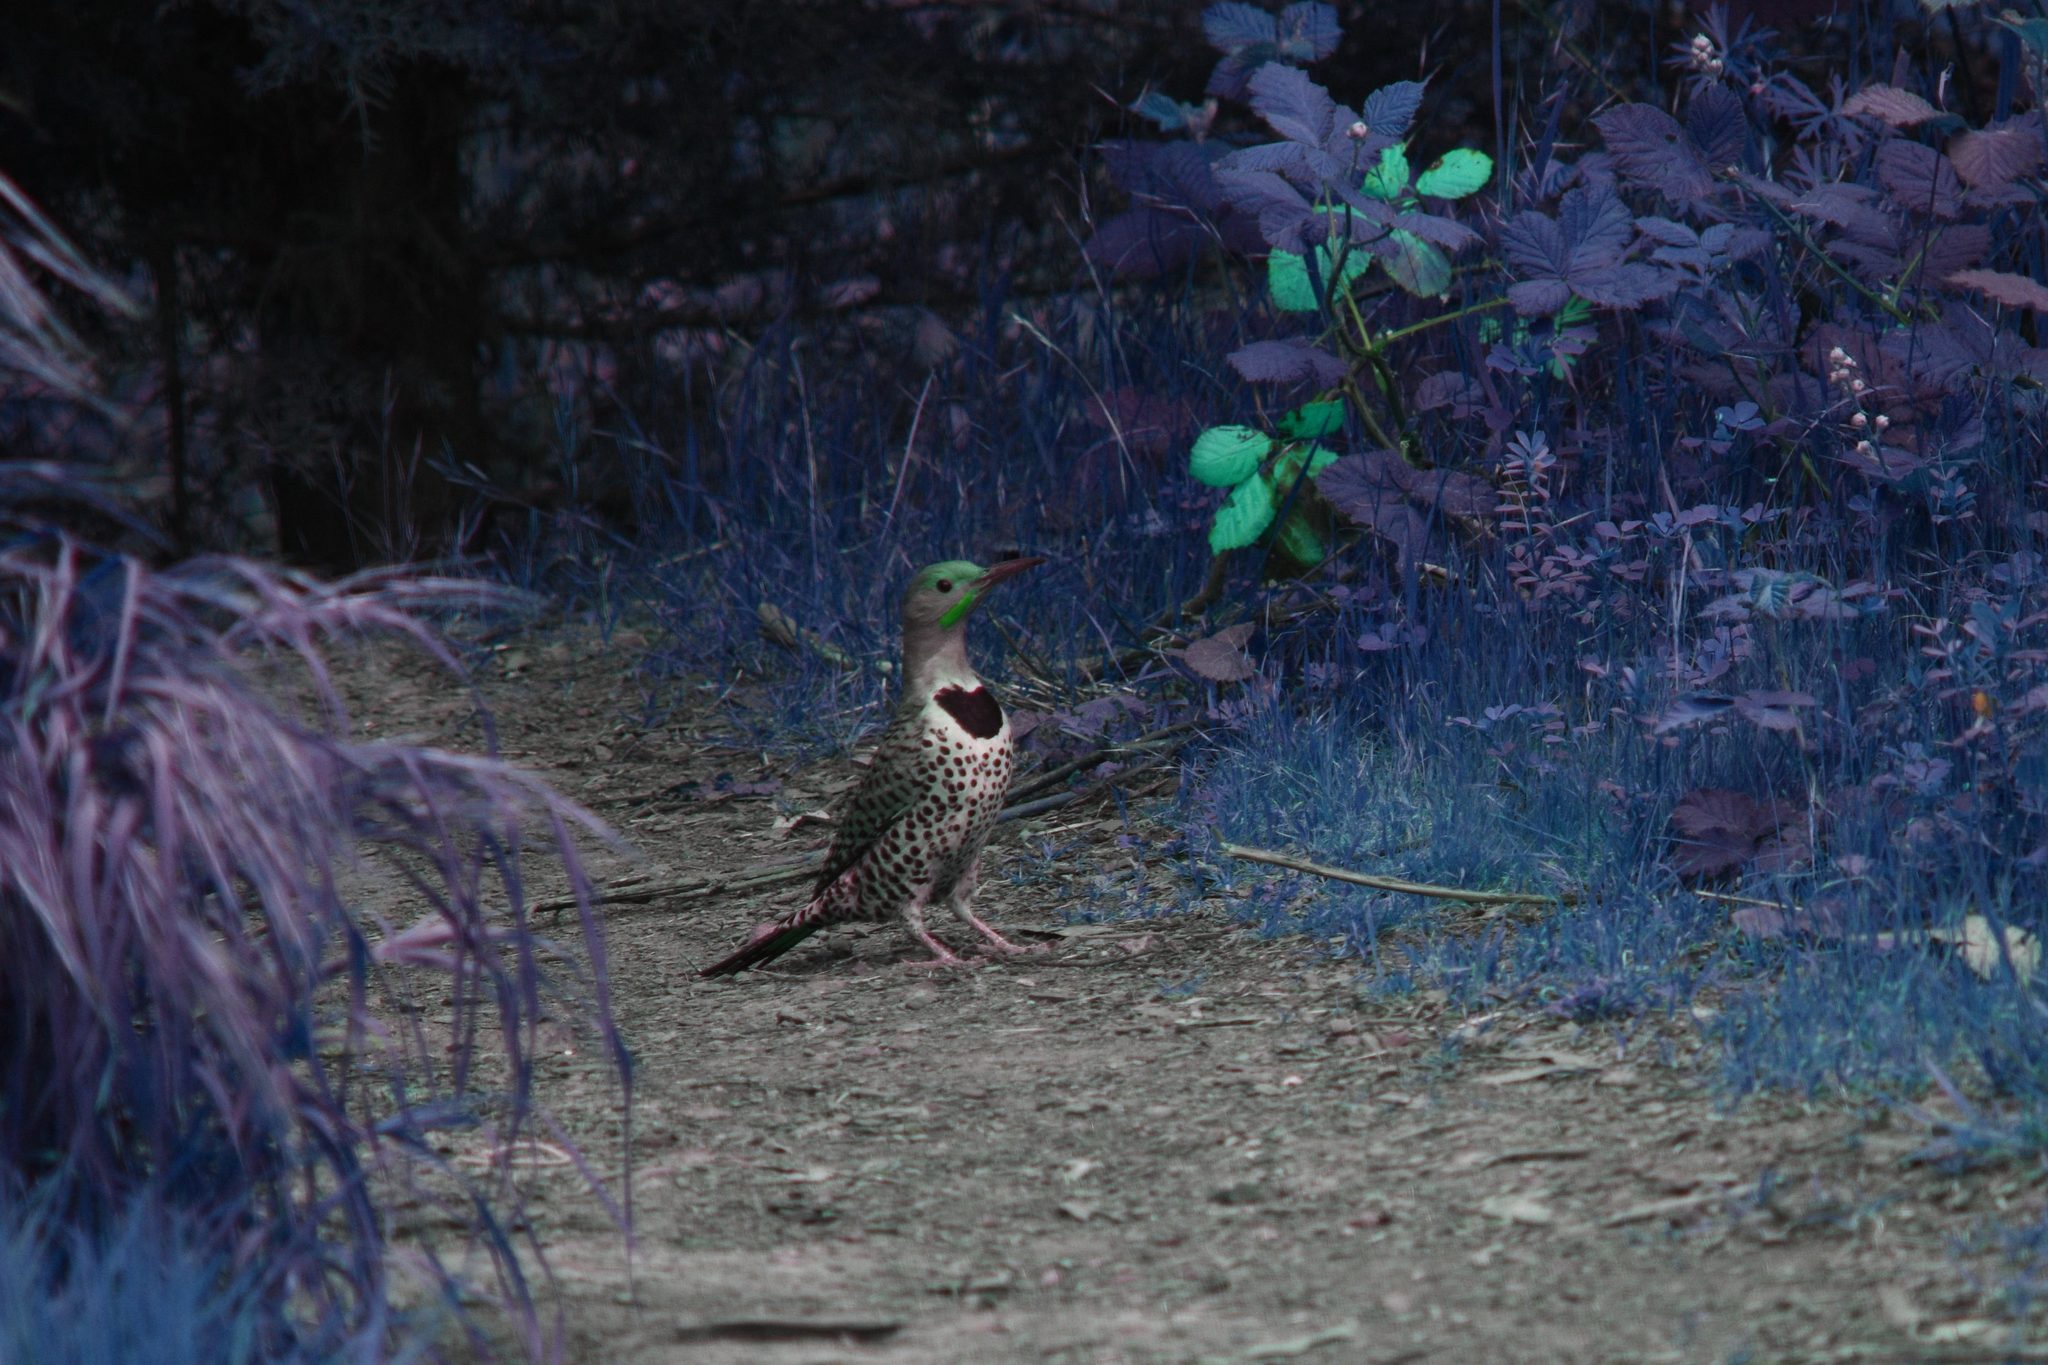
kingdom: Animalia
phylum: Chordata
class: Aves
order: Piciformes
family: Picidae
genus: Colaptes
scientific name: Colaptes auratus
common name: Northern flicker
